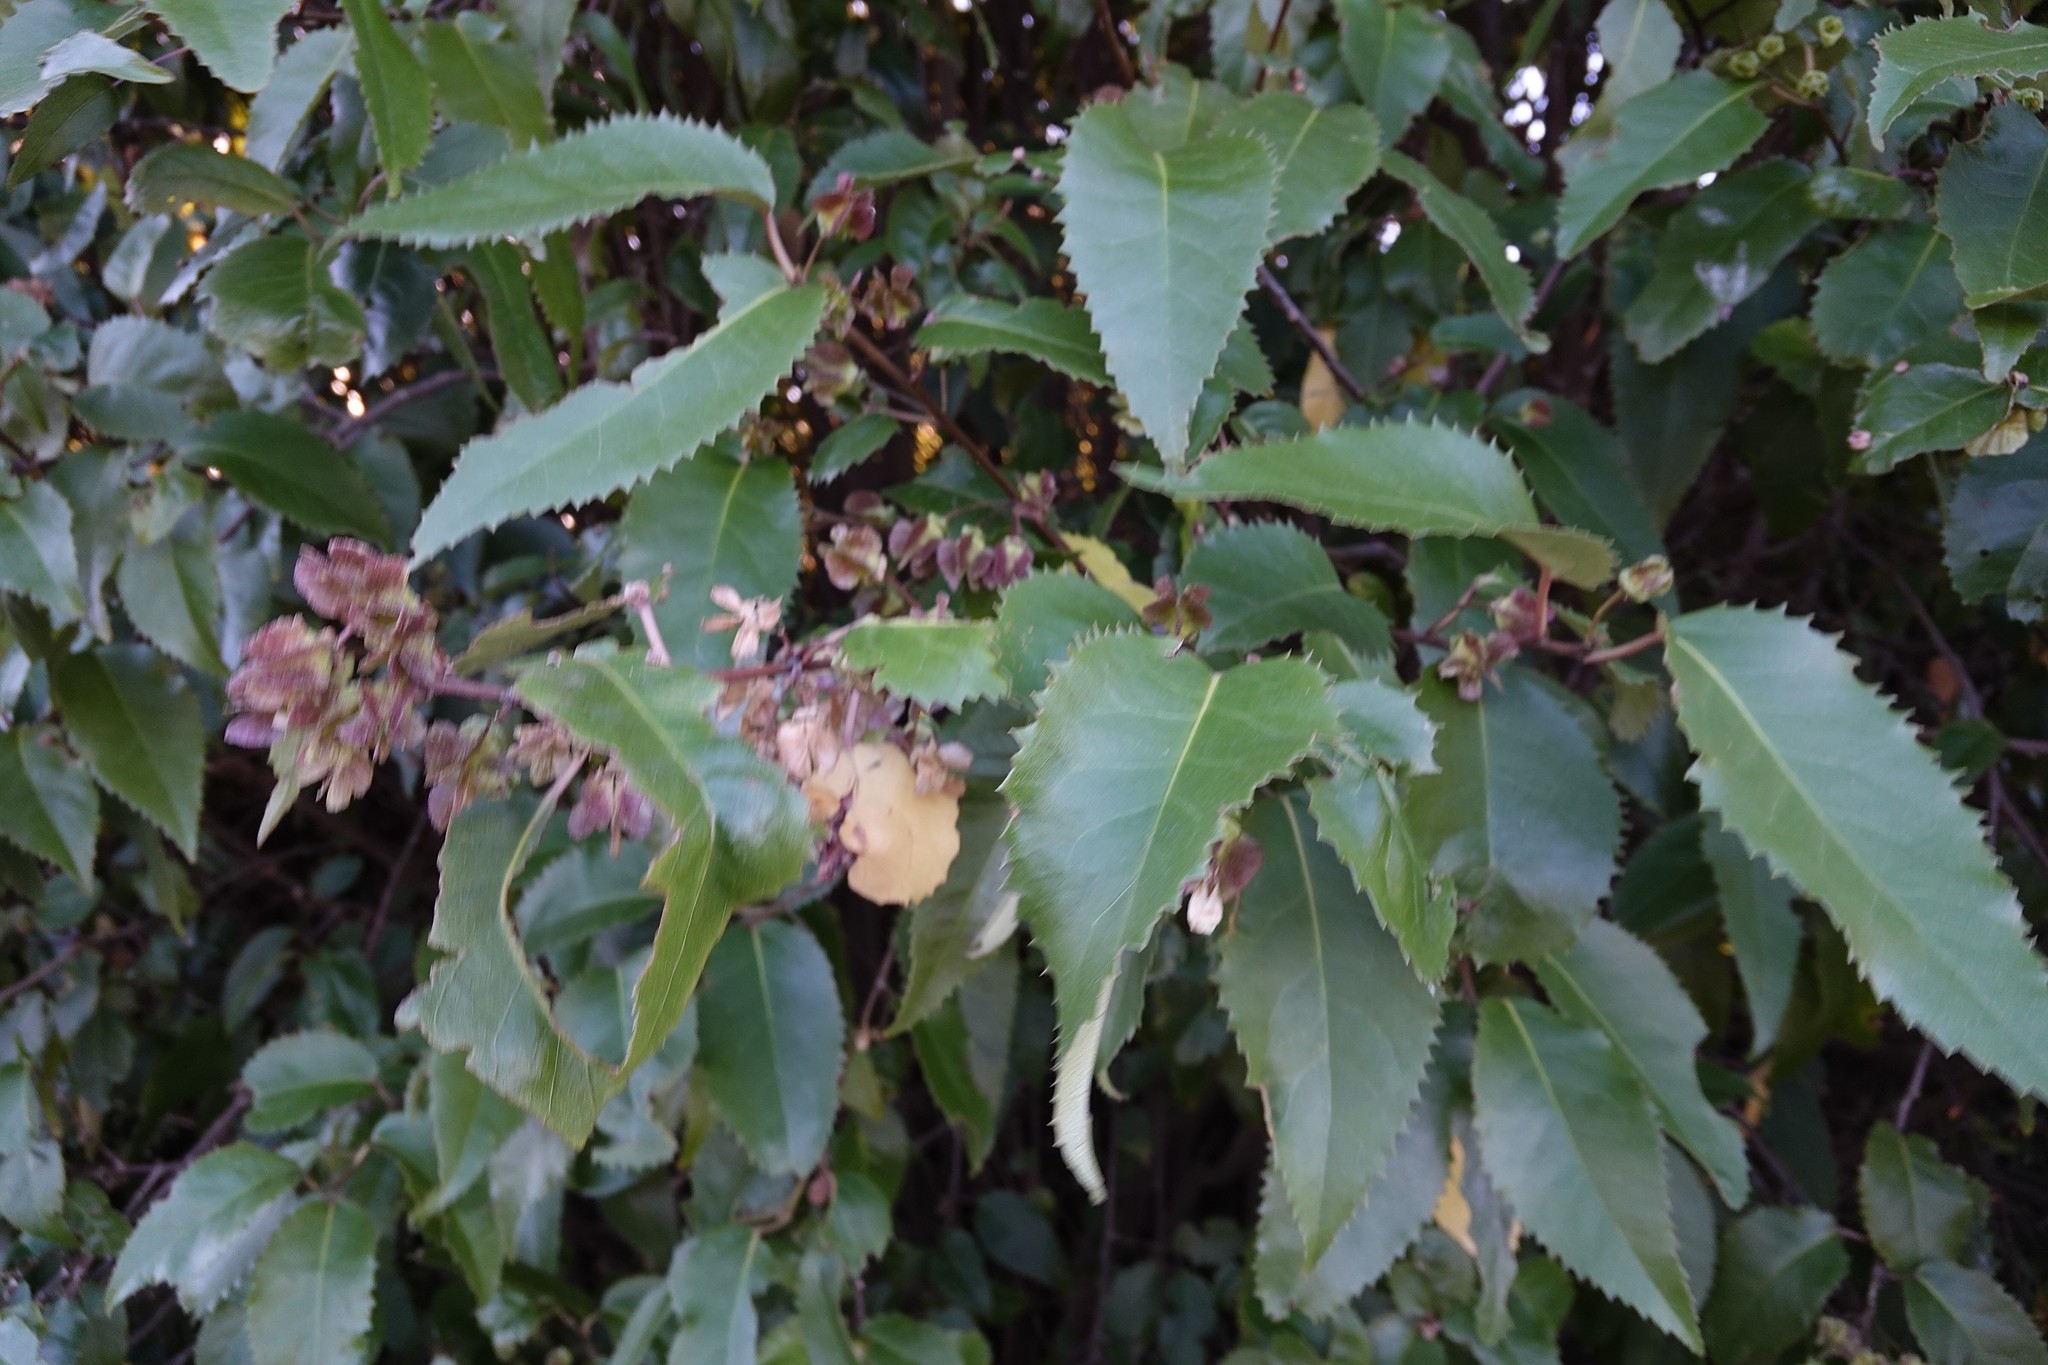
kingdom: Plantae
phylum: Tracheophyta
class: Magnoliopsida
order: Malvales
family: Malvaceae
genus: Hoheria
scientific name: Hoheria populnea
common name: Lacebark
